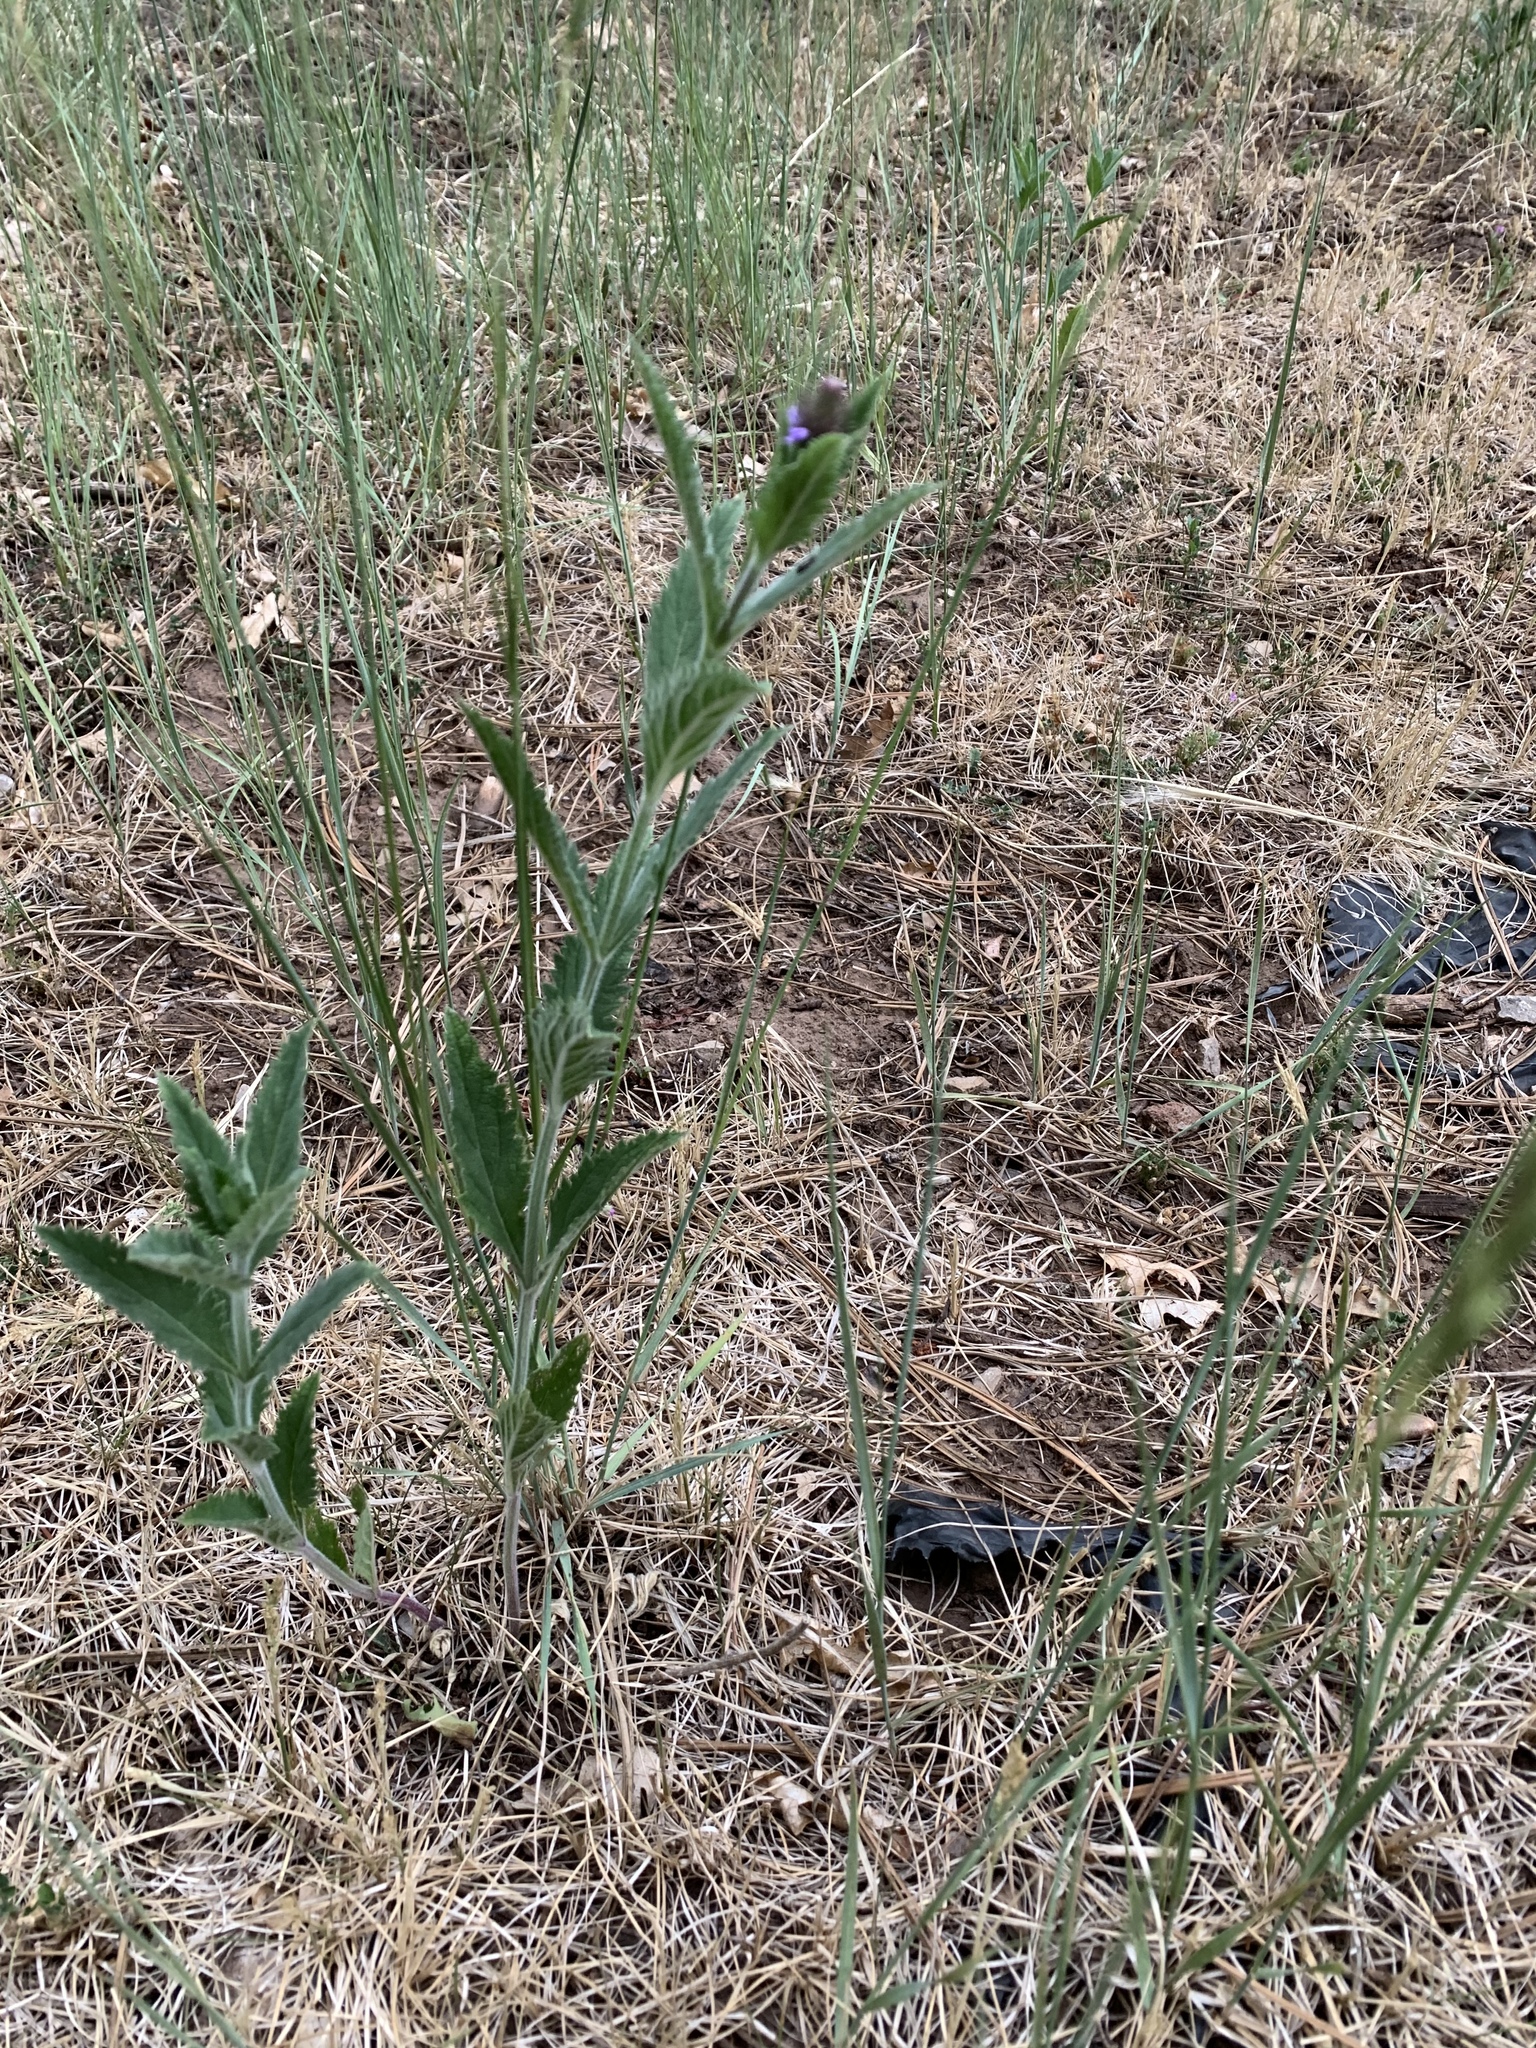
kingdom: Plantae
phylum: Tracheophyta
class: Magnoliopsida
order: Lamiales
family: Verbenaceae
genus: Verbena
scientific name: Verbena macdougalii
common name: New mexico vervain
